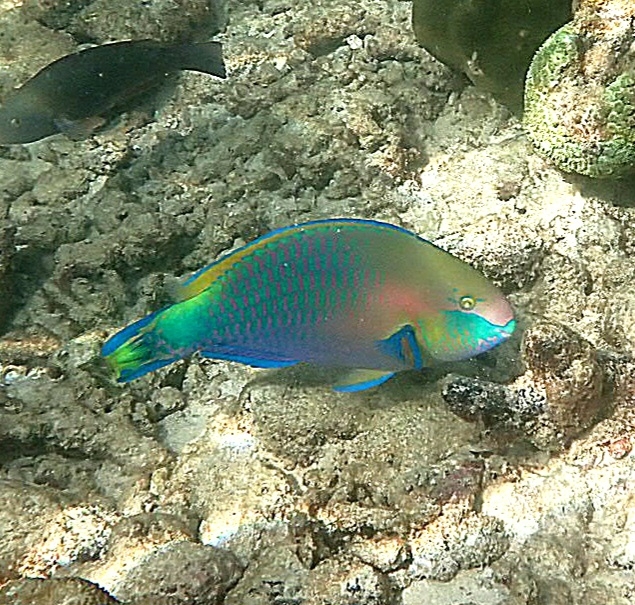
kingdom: Animalia
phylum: Chordata
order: Perciformes
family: Scaridae
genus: Scarus
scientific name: Scarus quoyi
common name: Quoy's parrotfish
